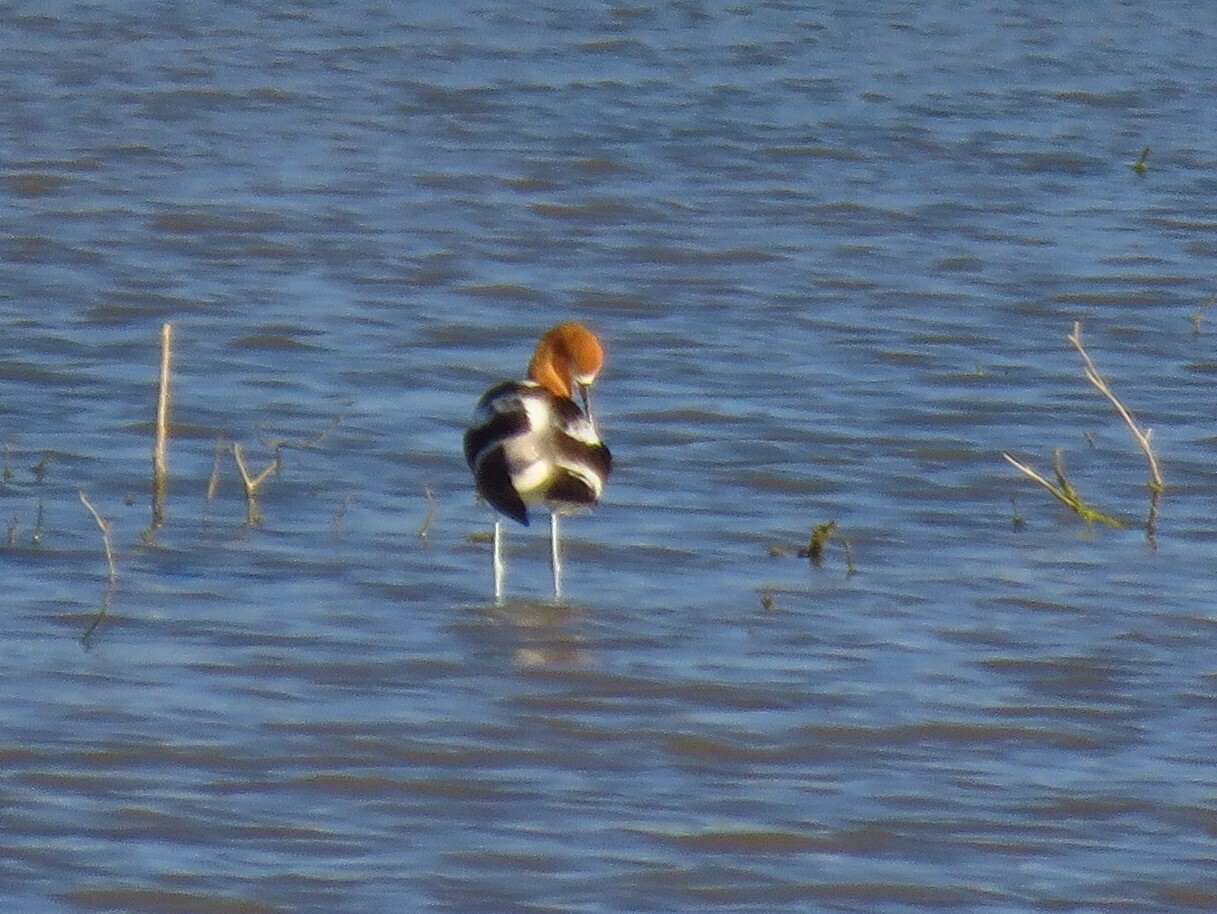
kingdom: Animalia
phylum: Chordata
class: Aves
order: Charadriiformes
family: Recurvirostridae
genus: Recurvirostra
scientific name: Recurvirostra americana
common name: American avocet
